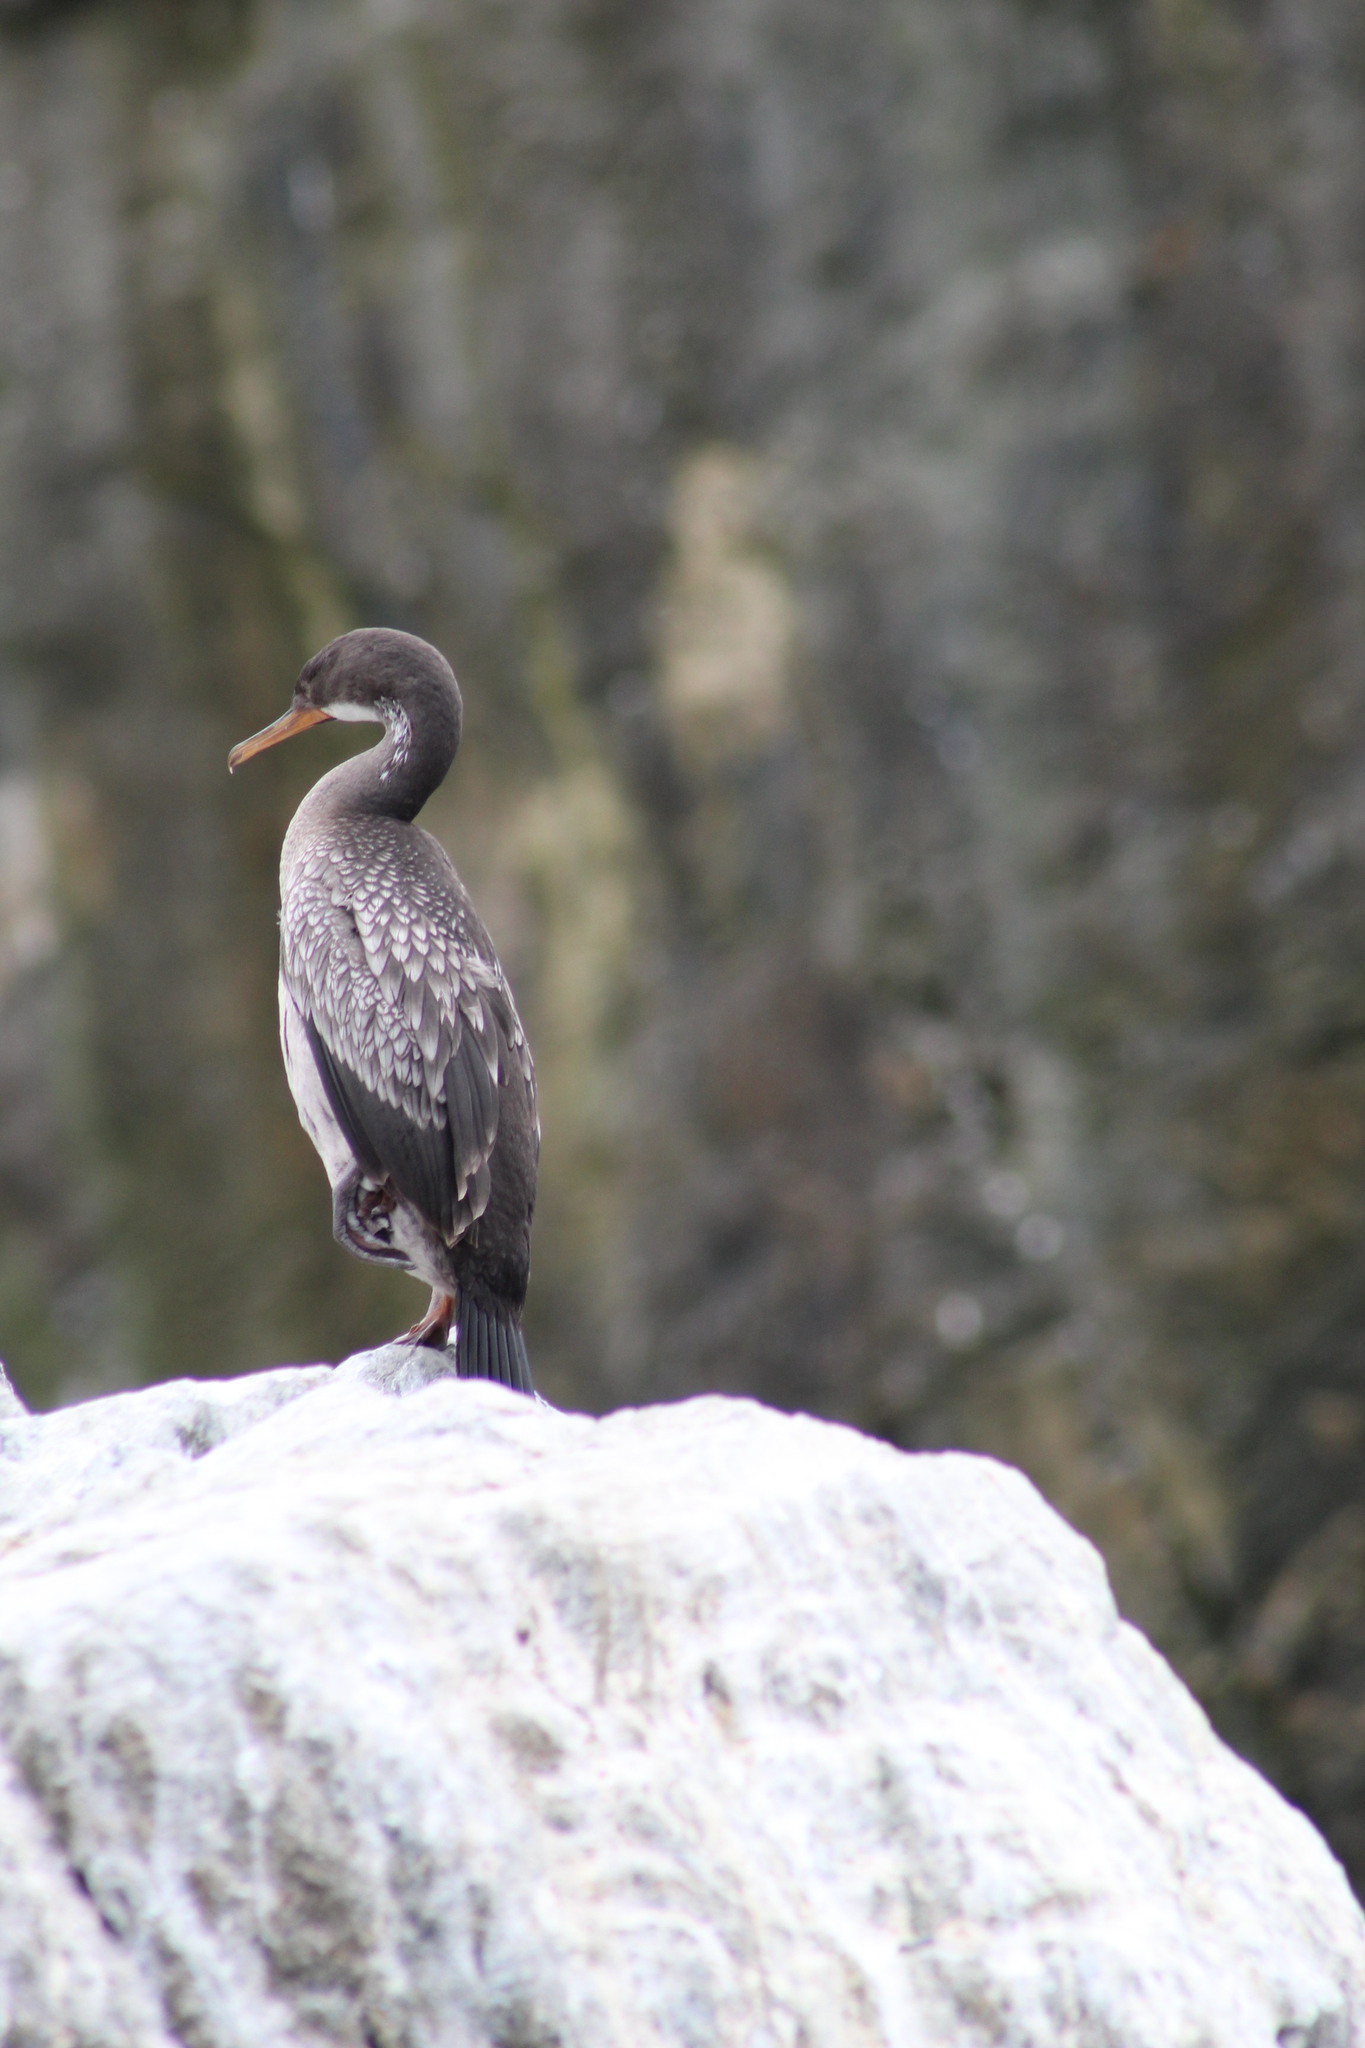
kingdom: Animalia
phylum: Chordata
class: Aves
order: Suliformes
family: Phalacrocoracidae
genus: Phalacrocorax
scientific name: Phalacrocorax gaimardi
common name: Red-legged cormorant
